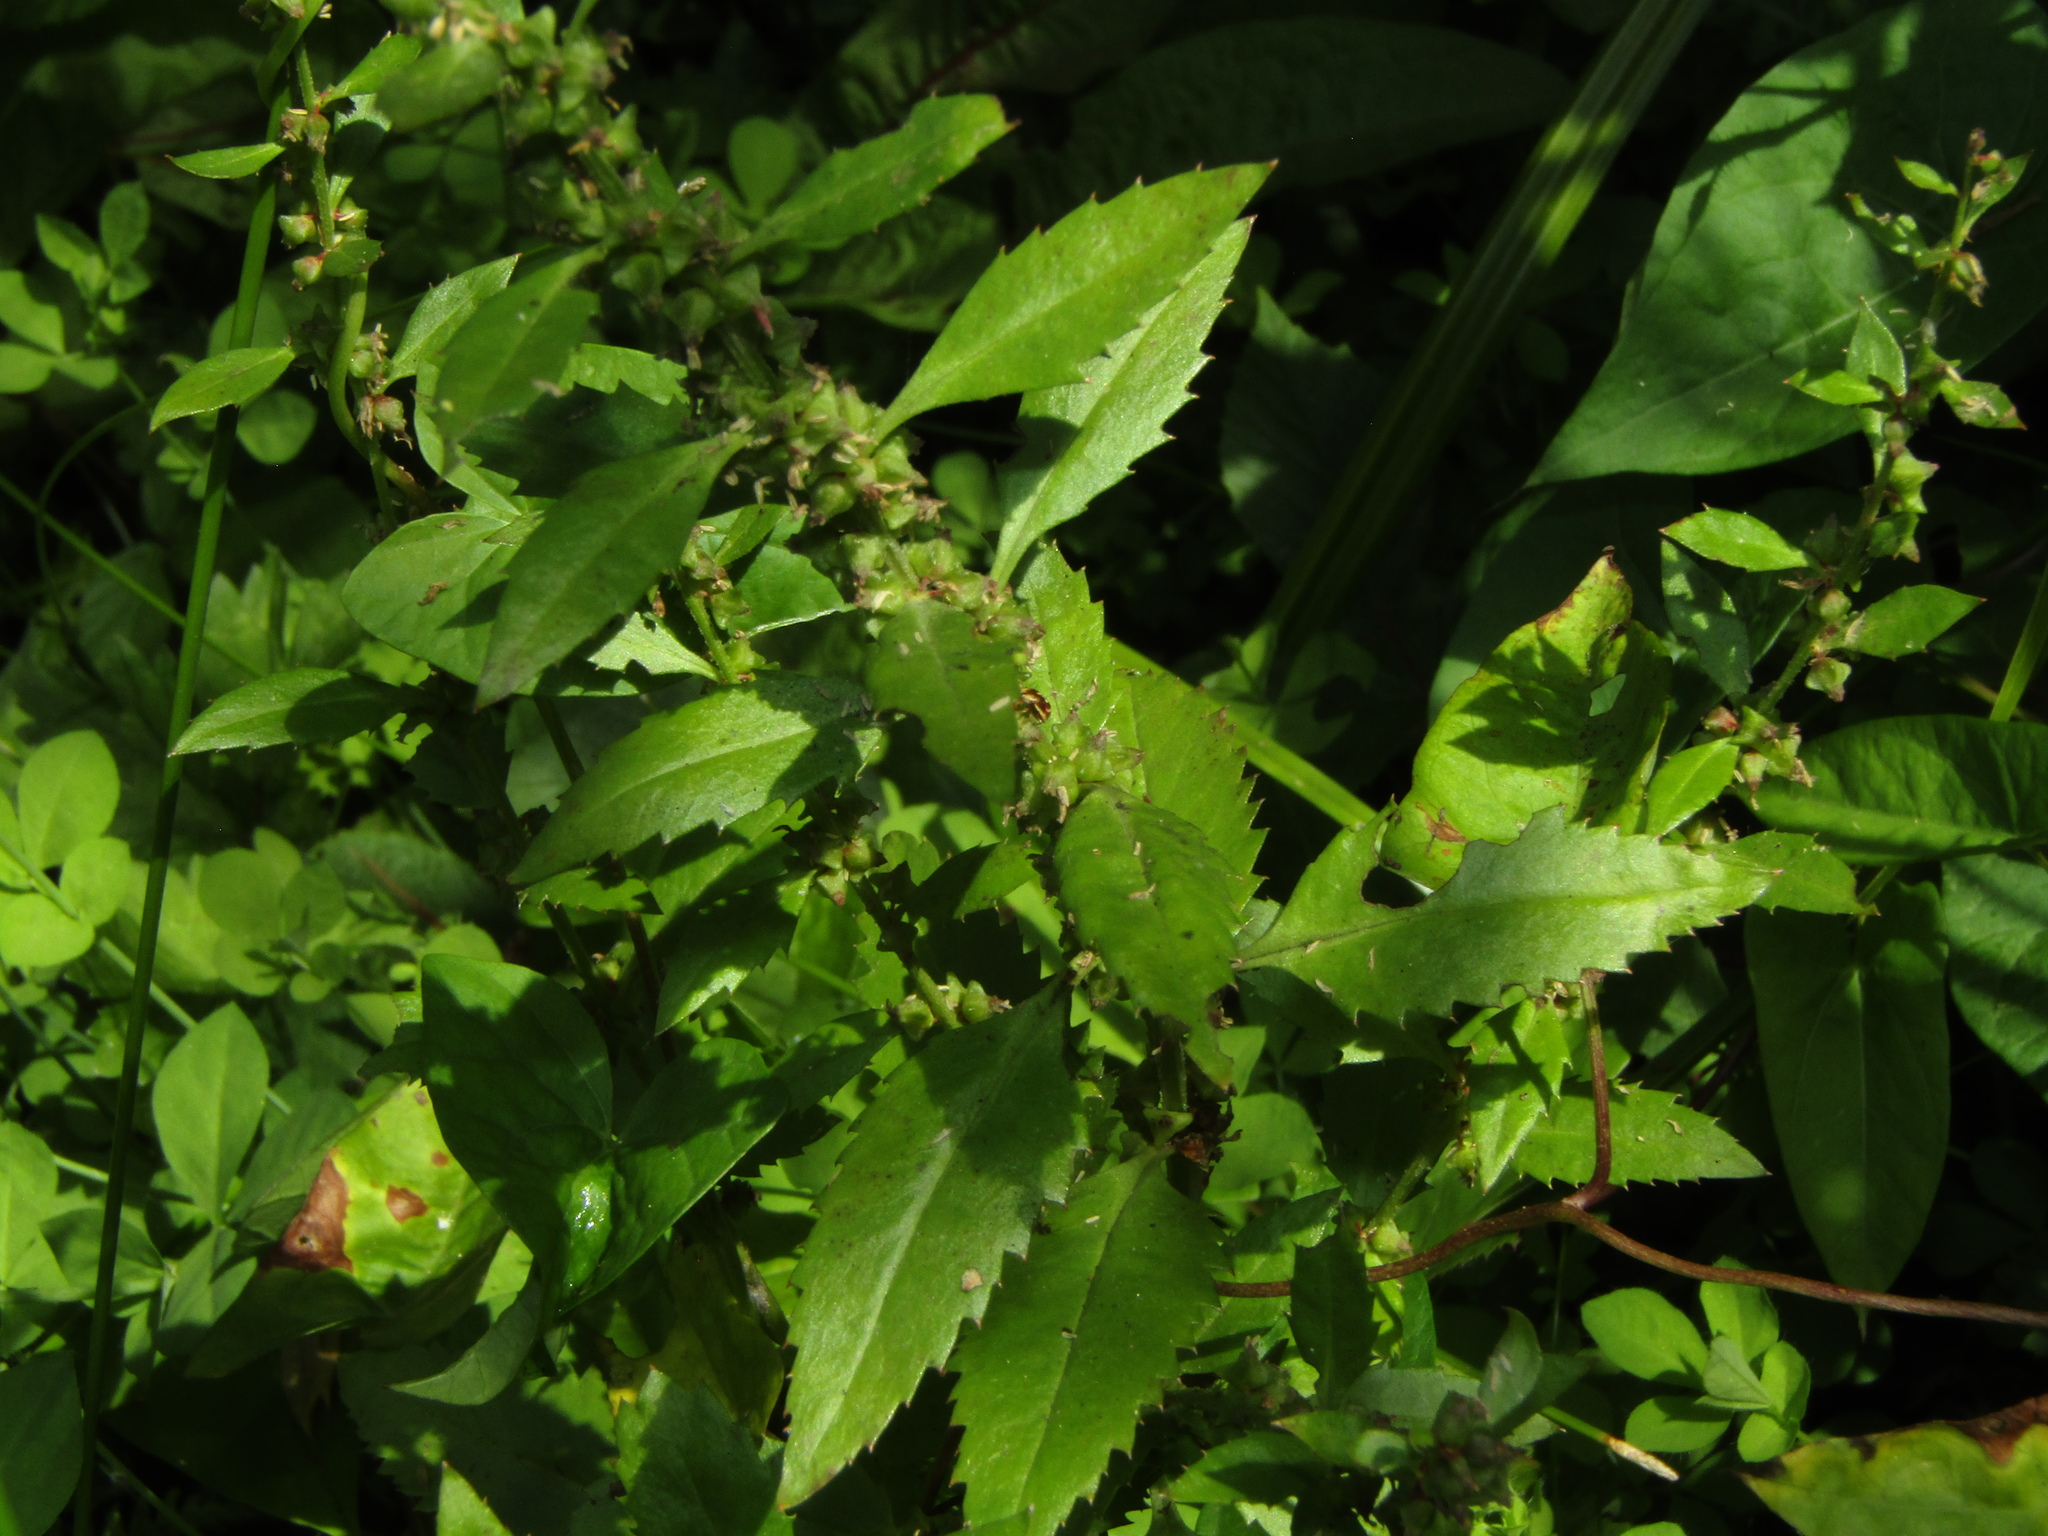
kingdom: Plantae
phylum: Tracheophyta
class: Magnoliopsida
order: Saxifragales
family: Haloragaceae
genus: Haloragis
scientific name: Haloragis erecta
